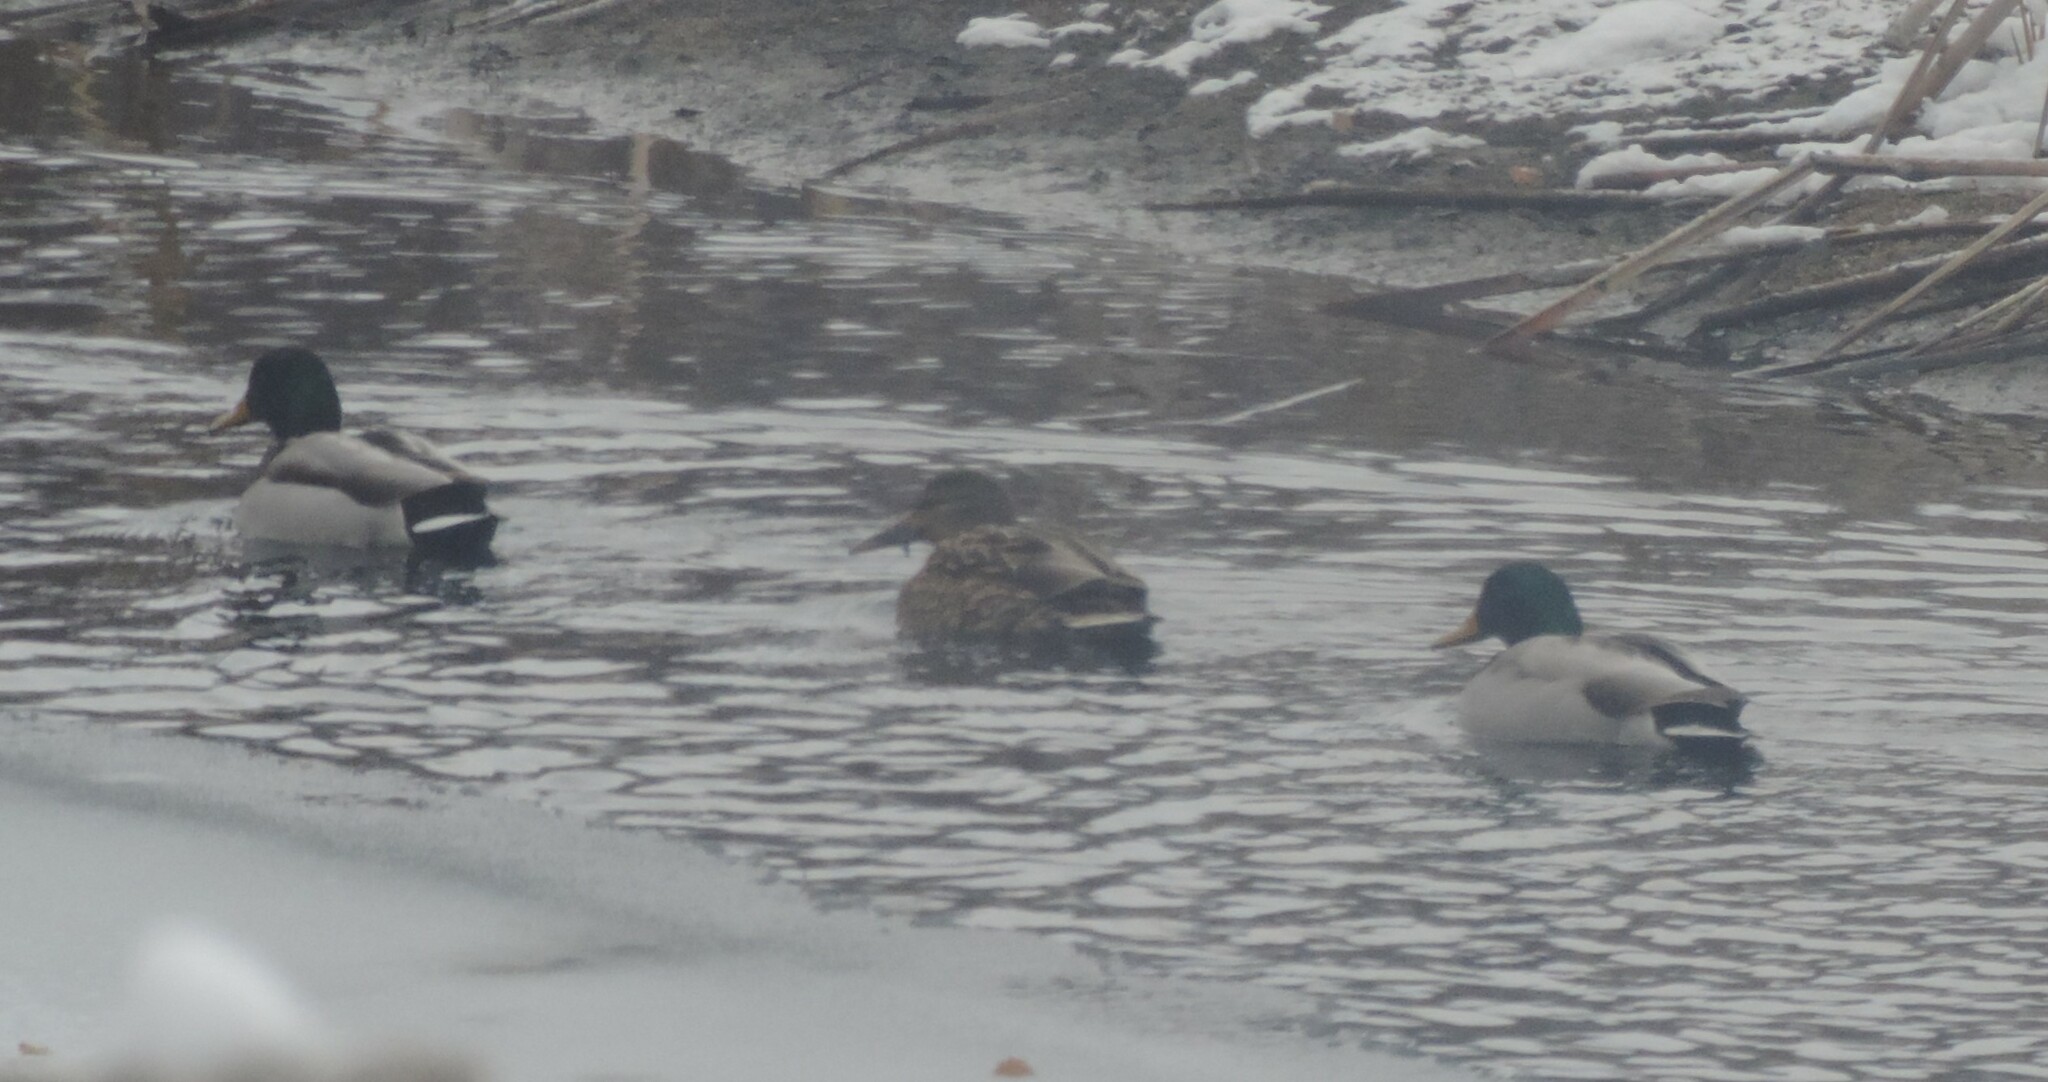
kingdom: Animalia
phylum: Chordata
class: Aves
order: Anseriformes
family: Anatidae
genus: Anas
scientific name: Anas platyrhynchos
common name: Mallard
